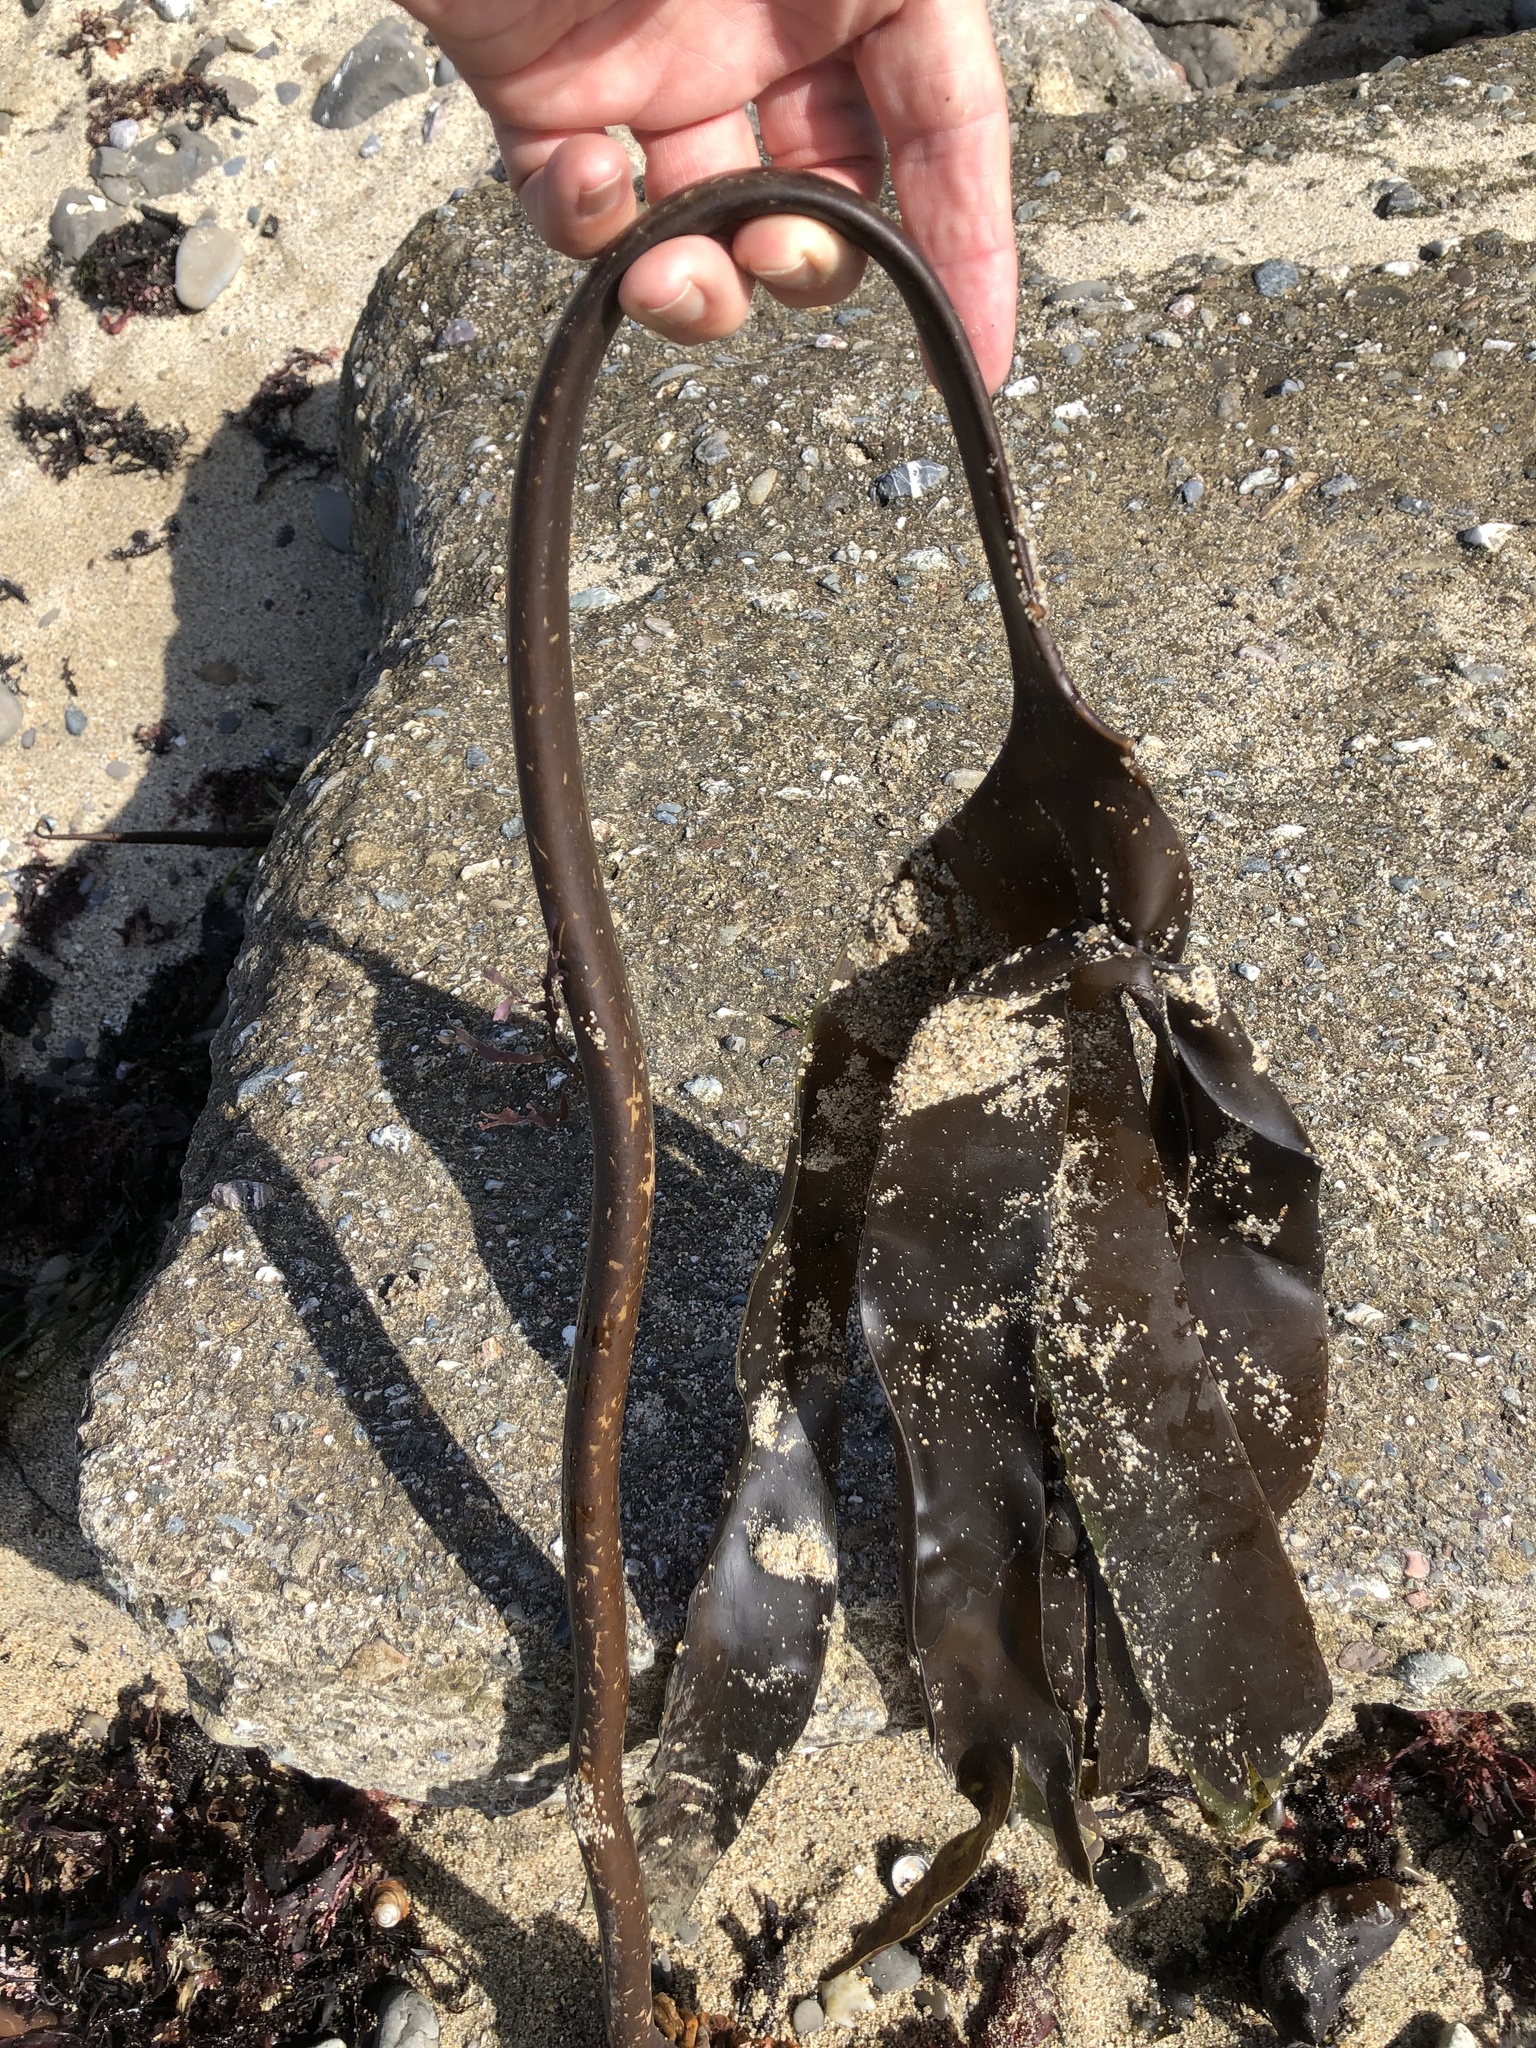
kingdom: Chromista
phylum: Ochrophyta
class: Phaeophyceae
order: Laminariales
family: Laminariaceae
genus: Laminaria
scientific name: Laminaria setchellii
